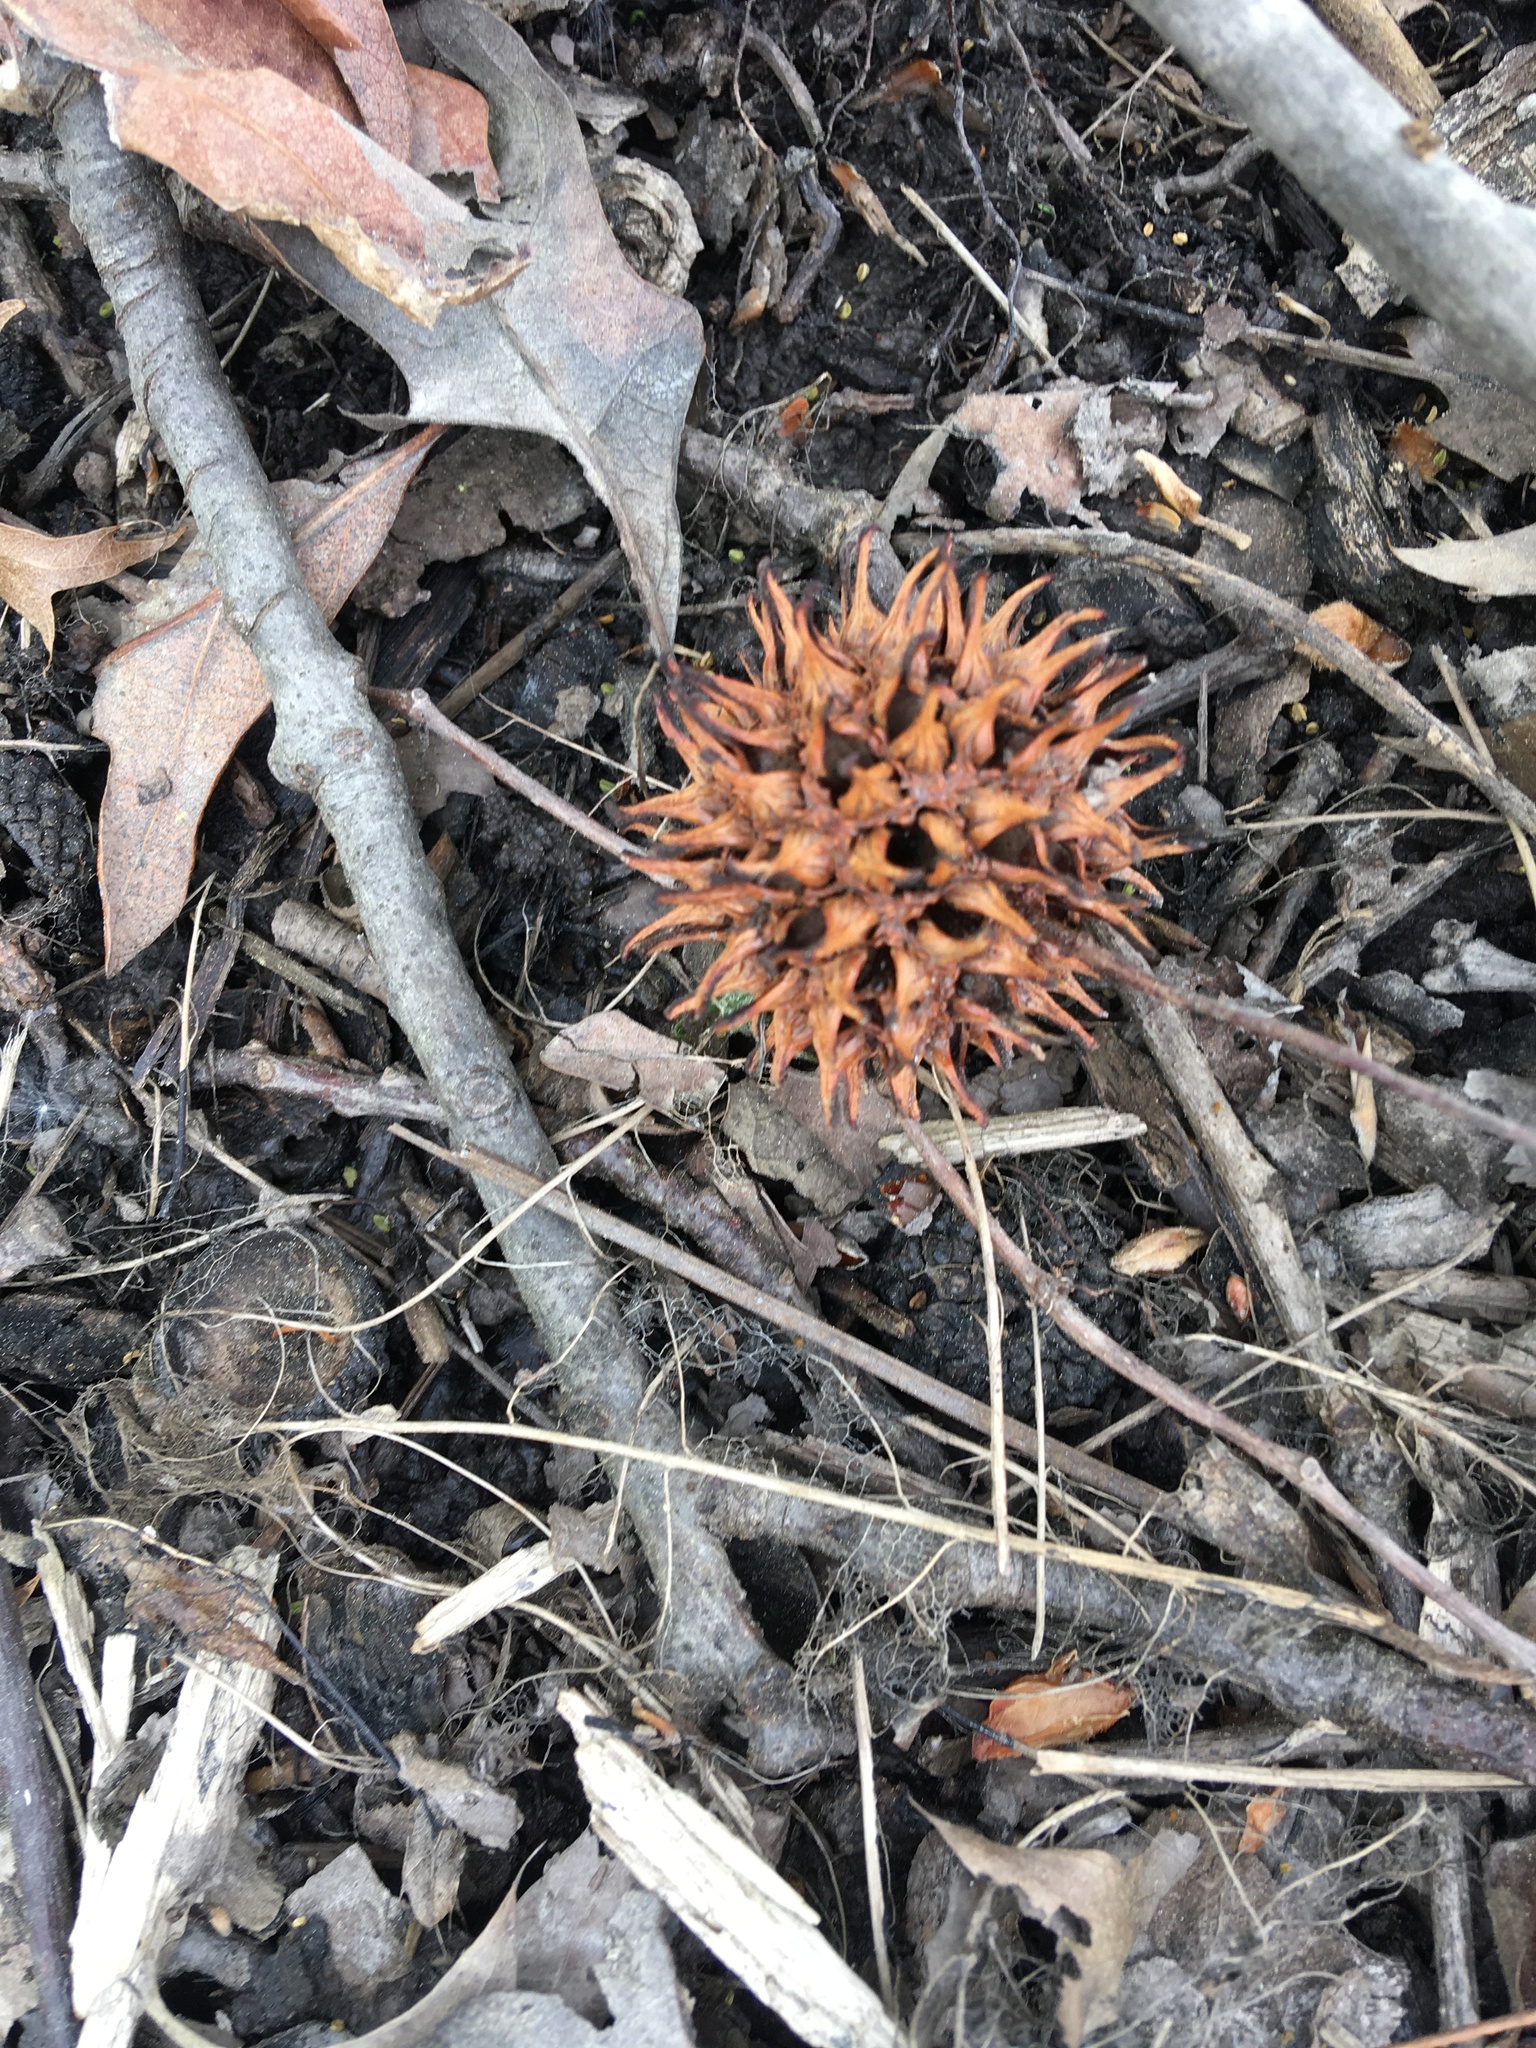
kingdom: Plantae
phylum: Tracheophyta
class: Magnoliopsida
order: Saxifragales
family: Altingiaceae
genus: Liquidambar
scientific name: Liquidambar styraciflua
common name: Sweet gum
